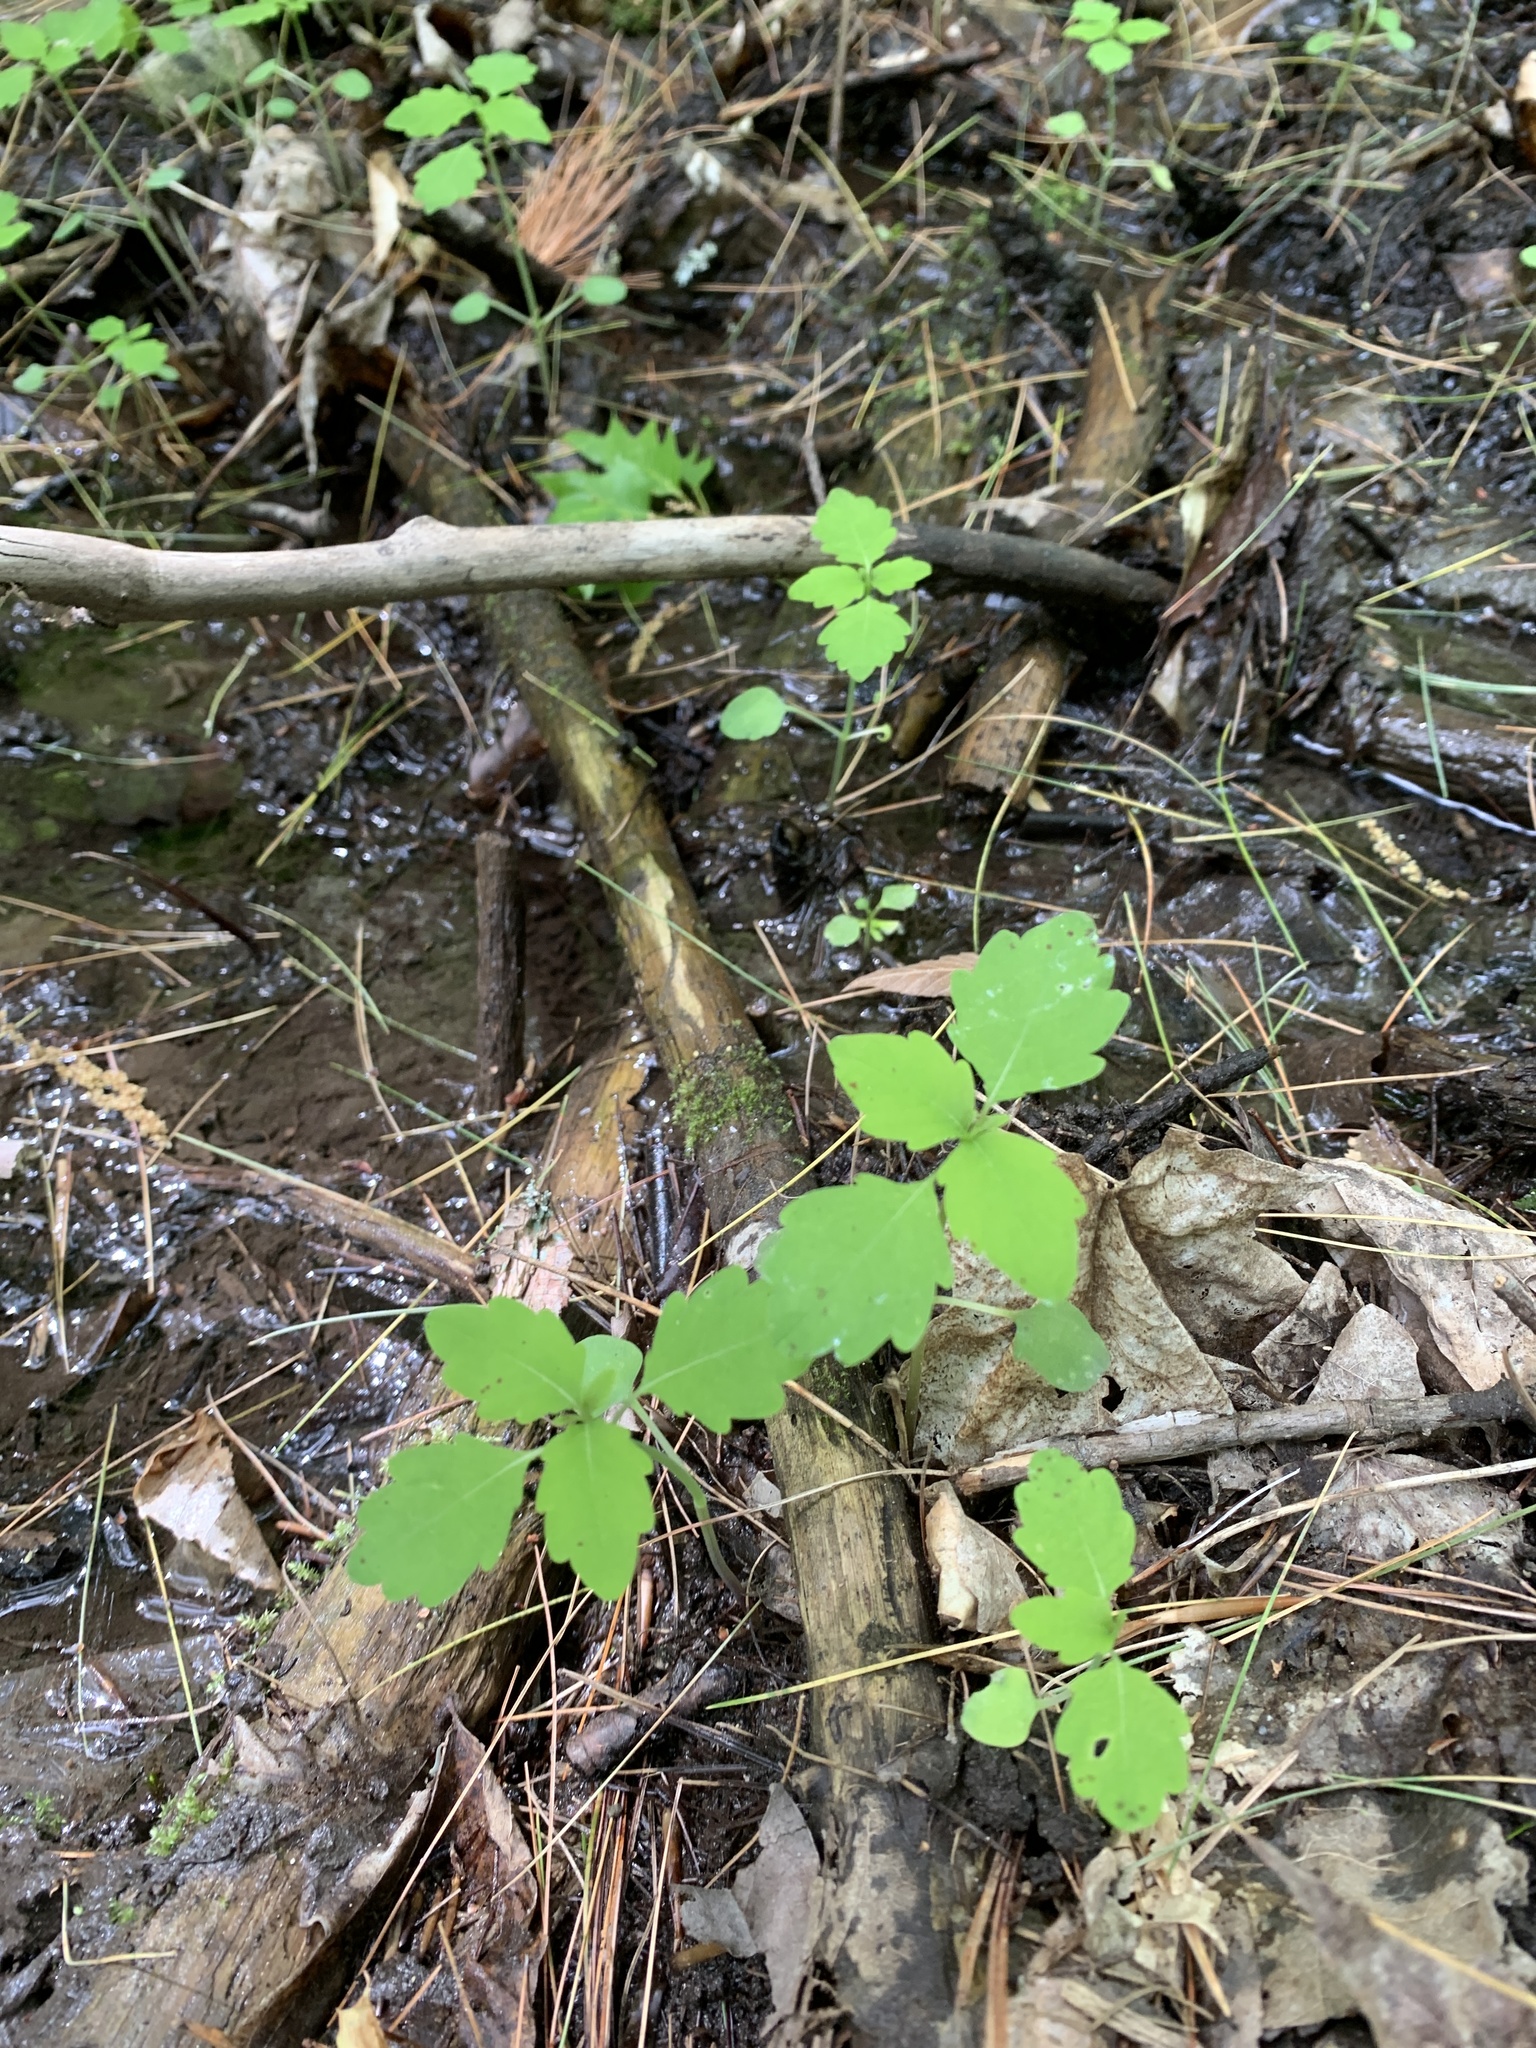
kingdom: Plantae
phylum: Tracheophyta
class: Magnoliopsida
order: Ericales
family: Balsaminaceae
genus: Impatiens
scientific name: Impatiens capensis
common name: Orange balsam
